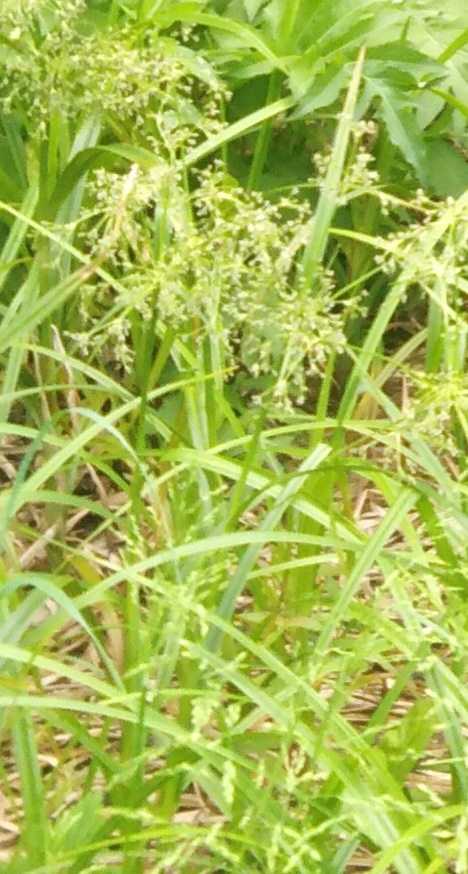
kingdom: Plantae
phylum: Tracheophyta
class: Liliopsida
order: Poales
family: Cyperaceae
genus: Scirpus
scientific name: Scirpus sylvaticus
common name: Wood club-rush
